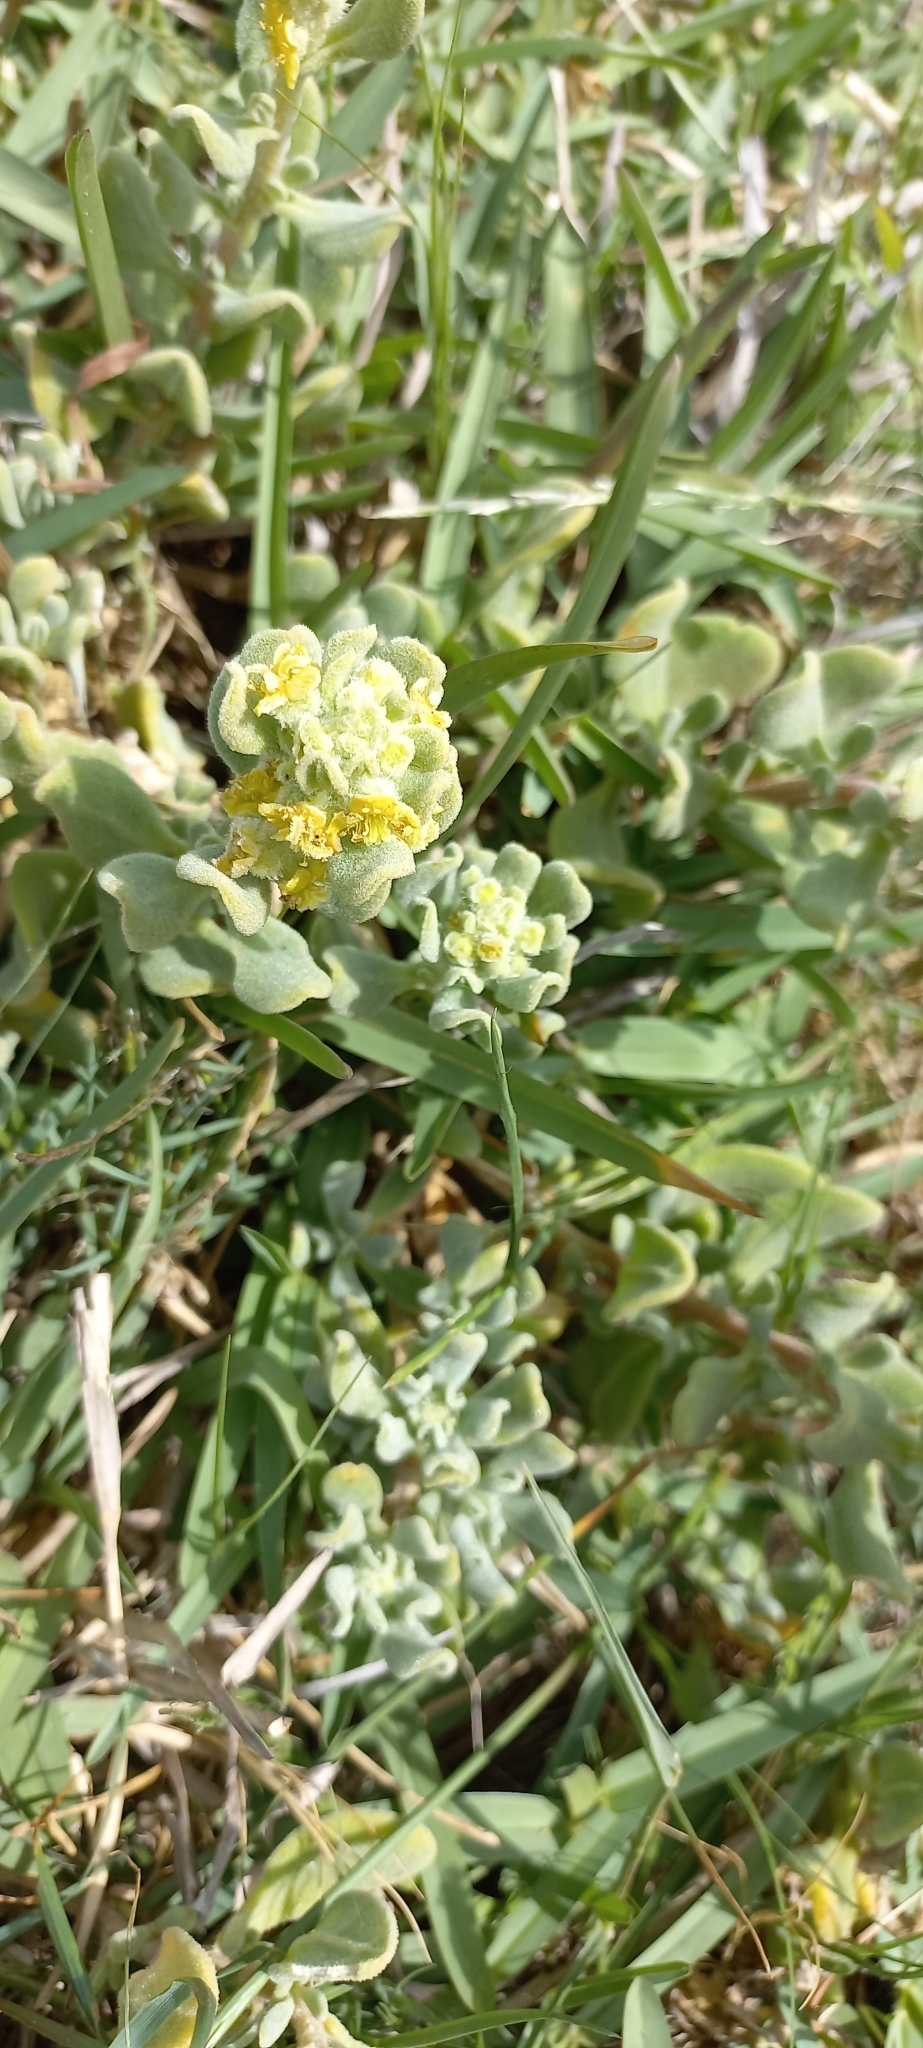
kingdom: Plantae
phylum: Tracheophyta
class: Magnoliopsida
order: Caryophyllales
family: Aizoaceae
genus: Tetragonia
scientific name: Tetragonia decumbens
